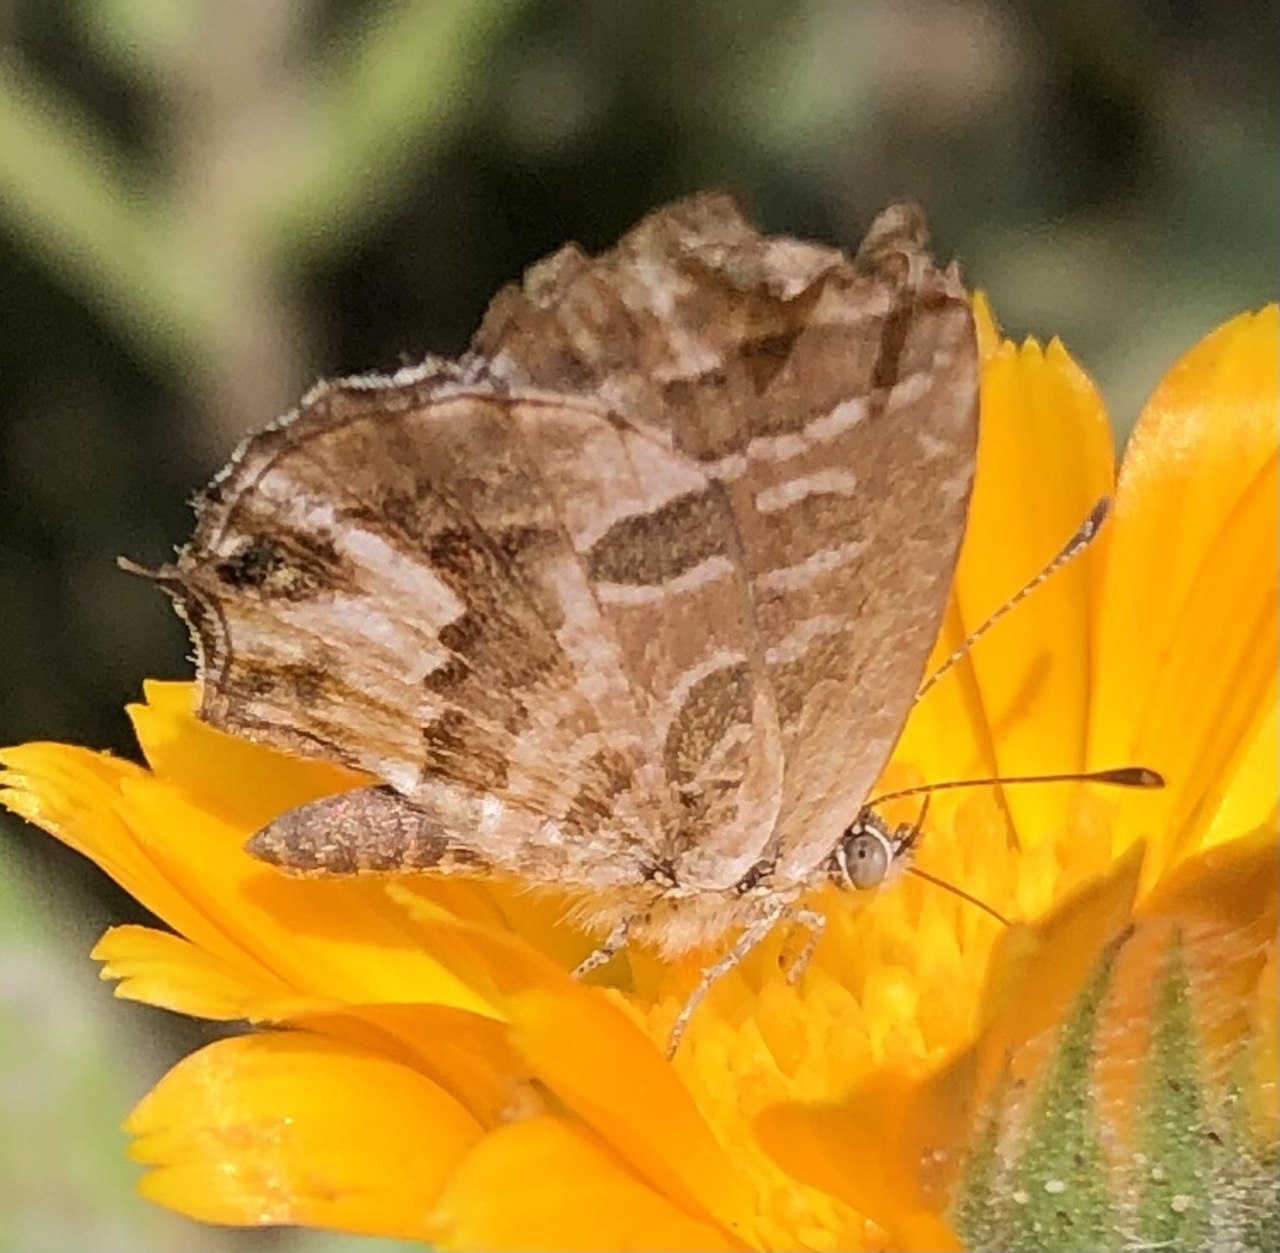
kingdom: Animalia
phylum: Arthropoda
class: Insecta
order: Lepidoptera
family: Lycaenidae
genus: Cacyreus
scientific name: Cacyreus marshalli
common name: Geranium bronze
